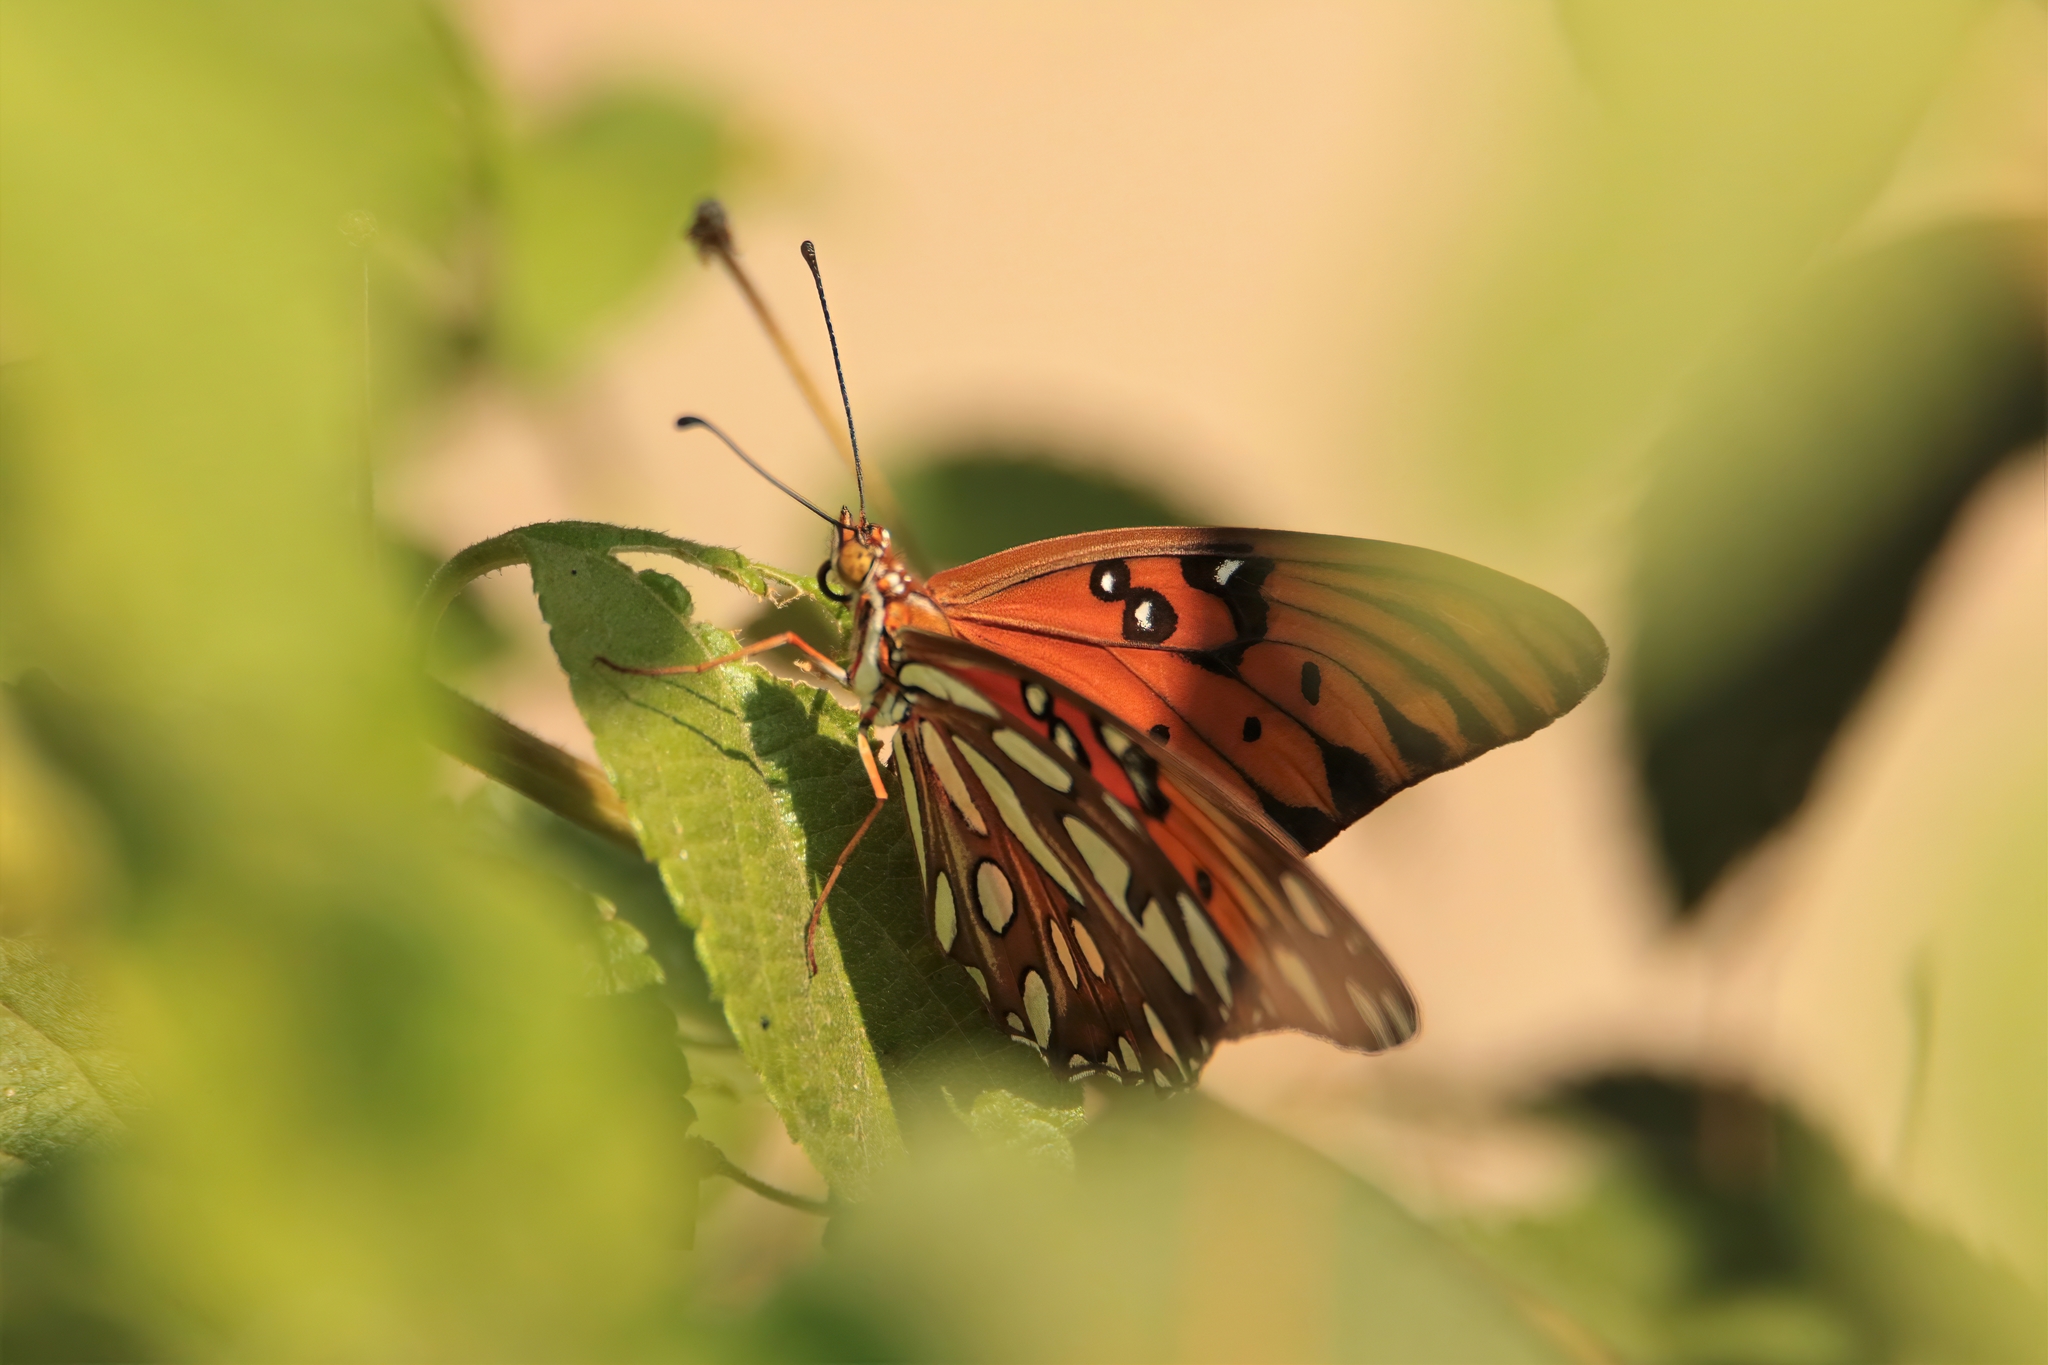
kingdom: Animalia
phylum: Arthropoda
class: Insecta
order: Lepidoptera
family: Nymphalidae
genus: Dione
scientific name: Dione vanillae
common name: Gulf fritillary
